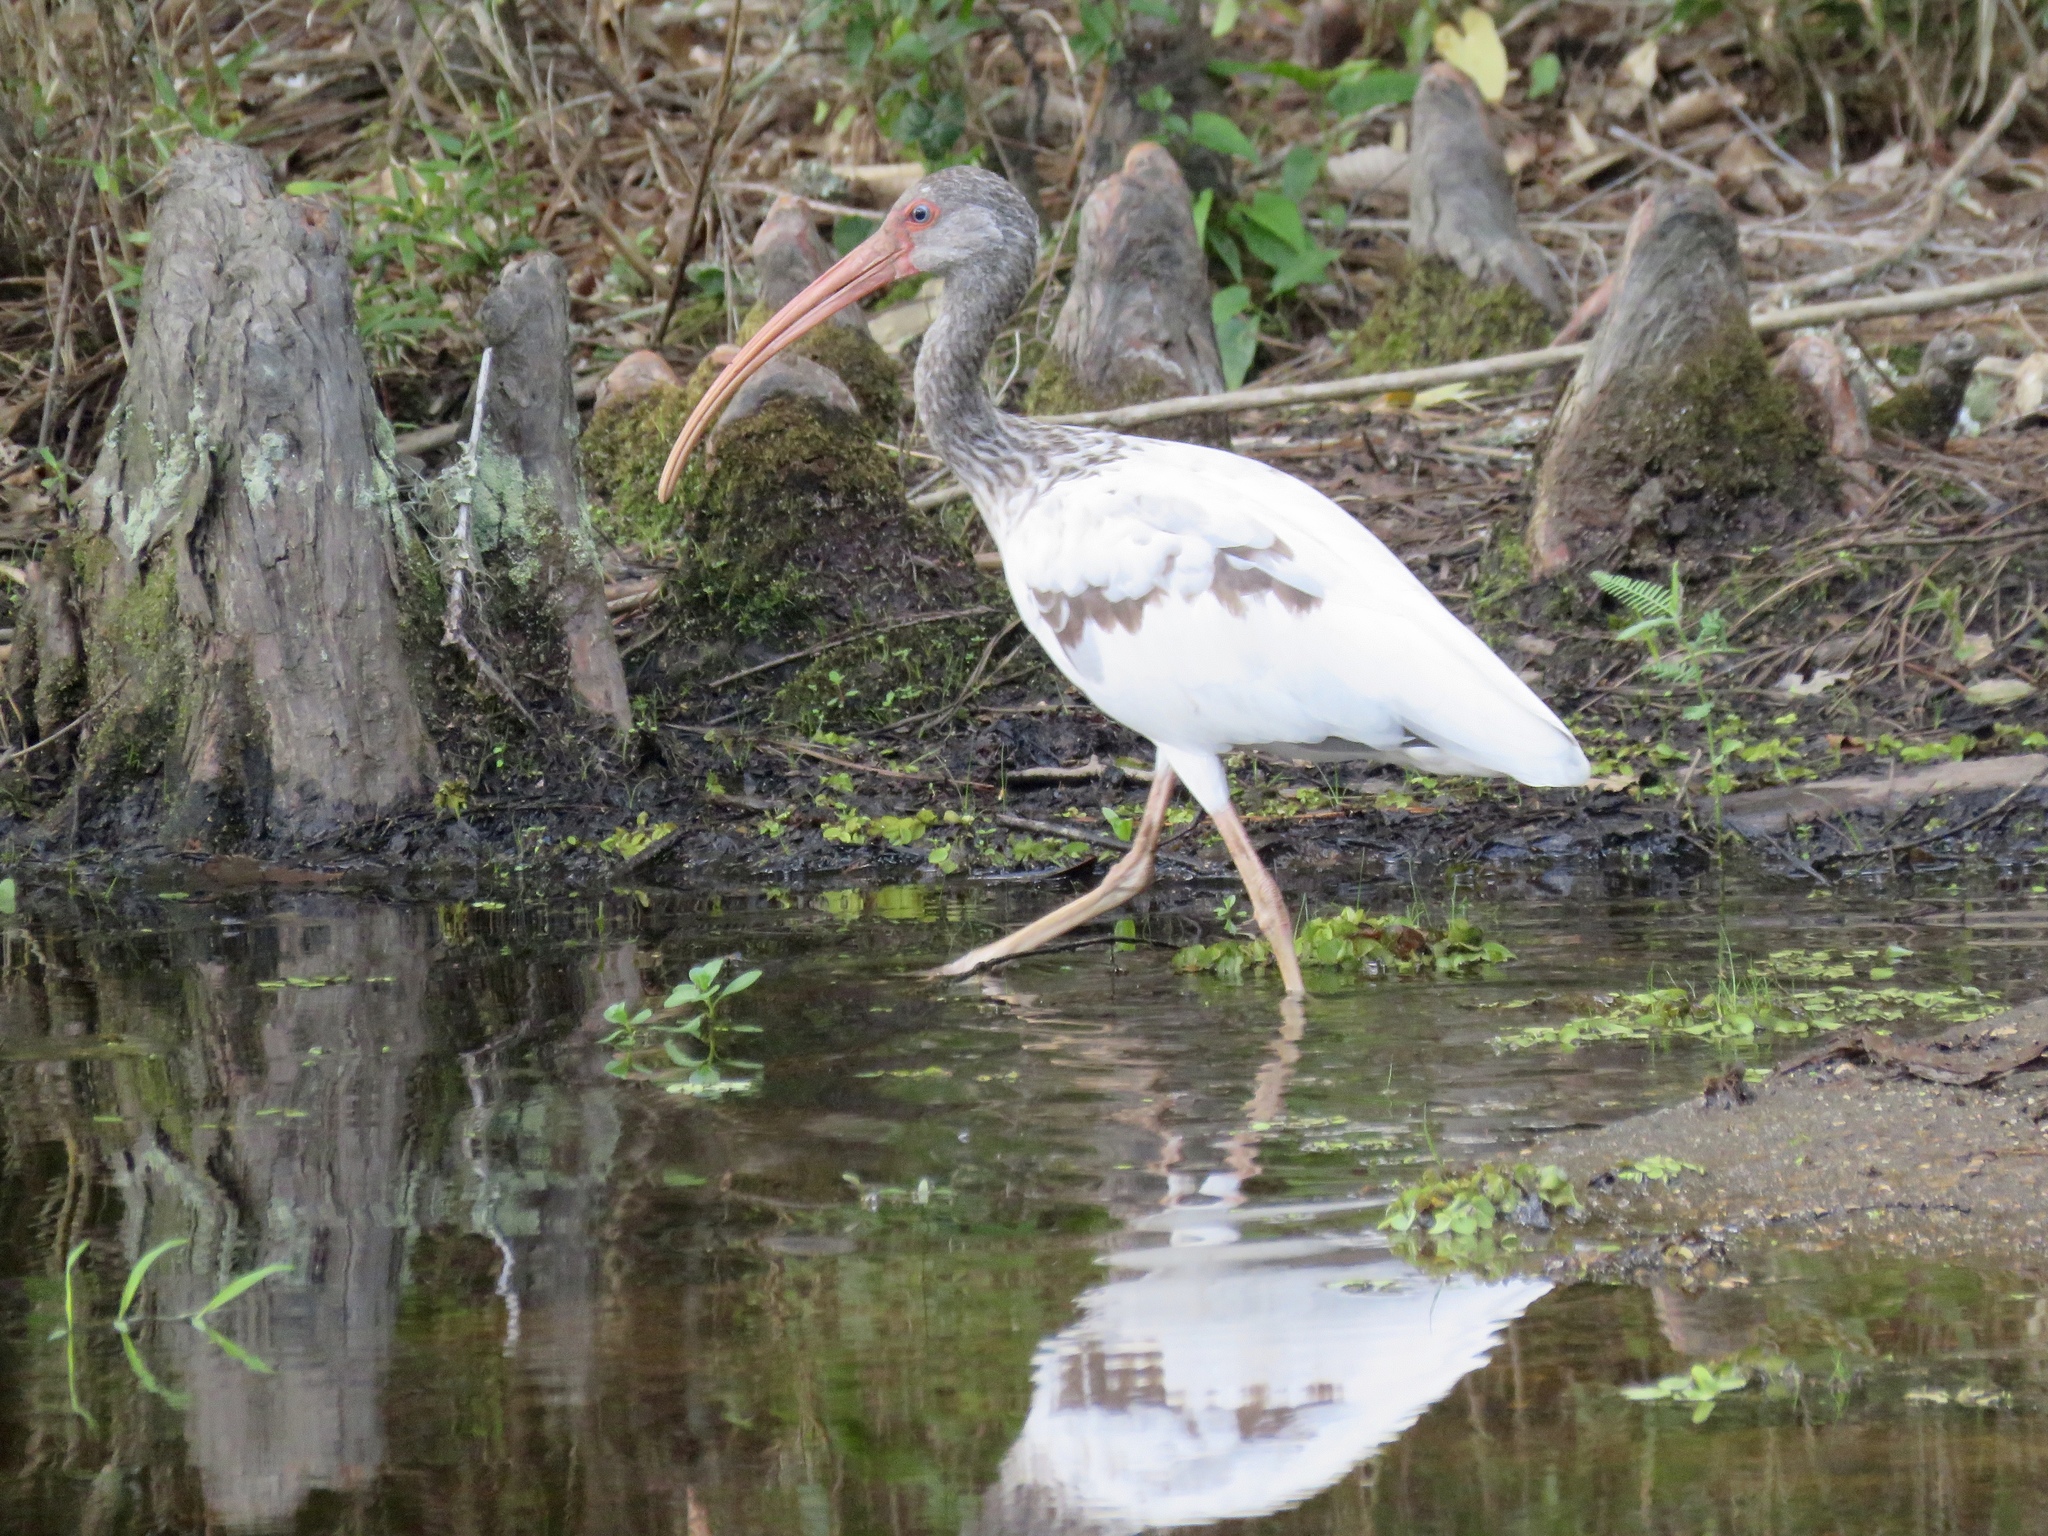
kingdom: Animalia
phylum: Chordata
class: Aves
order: Pelecaniformes
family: Threskiornithidae
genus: Eudocimus
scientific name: Eudocimus albus
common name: White ibis
